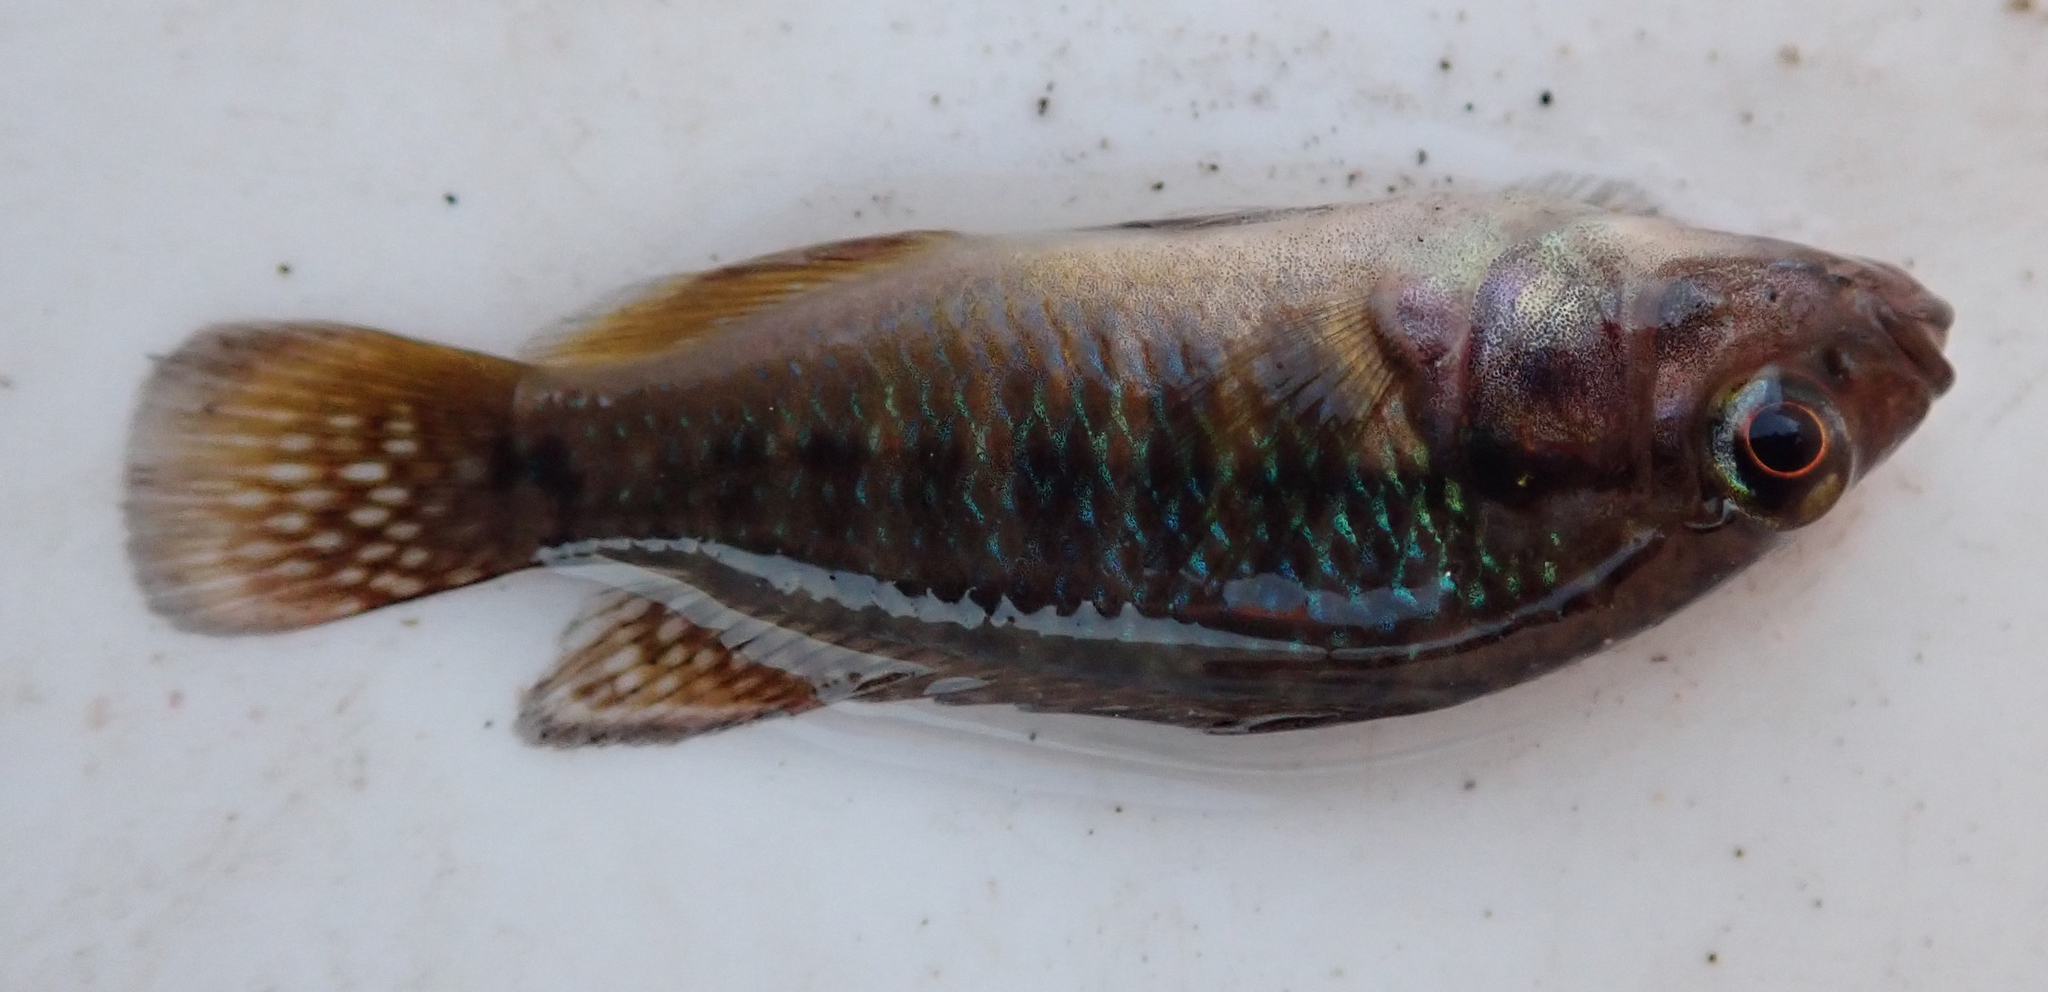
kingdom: Animalia
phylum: Chordata
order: Perciformes
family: Cichlidae
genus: Pseudocrenilabrus
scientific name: Pseudocrenilabrus philander
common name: Southern mouthbrooder
